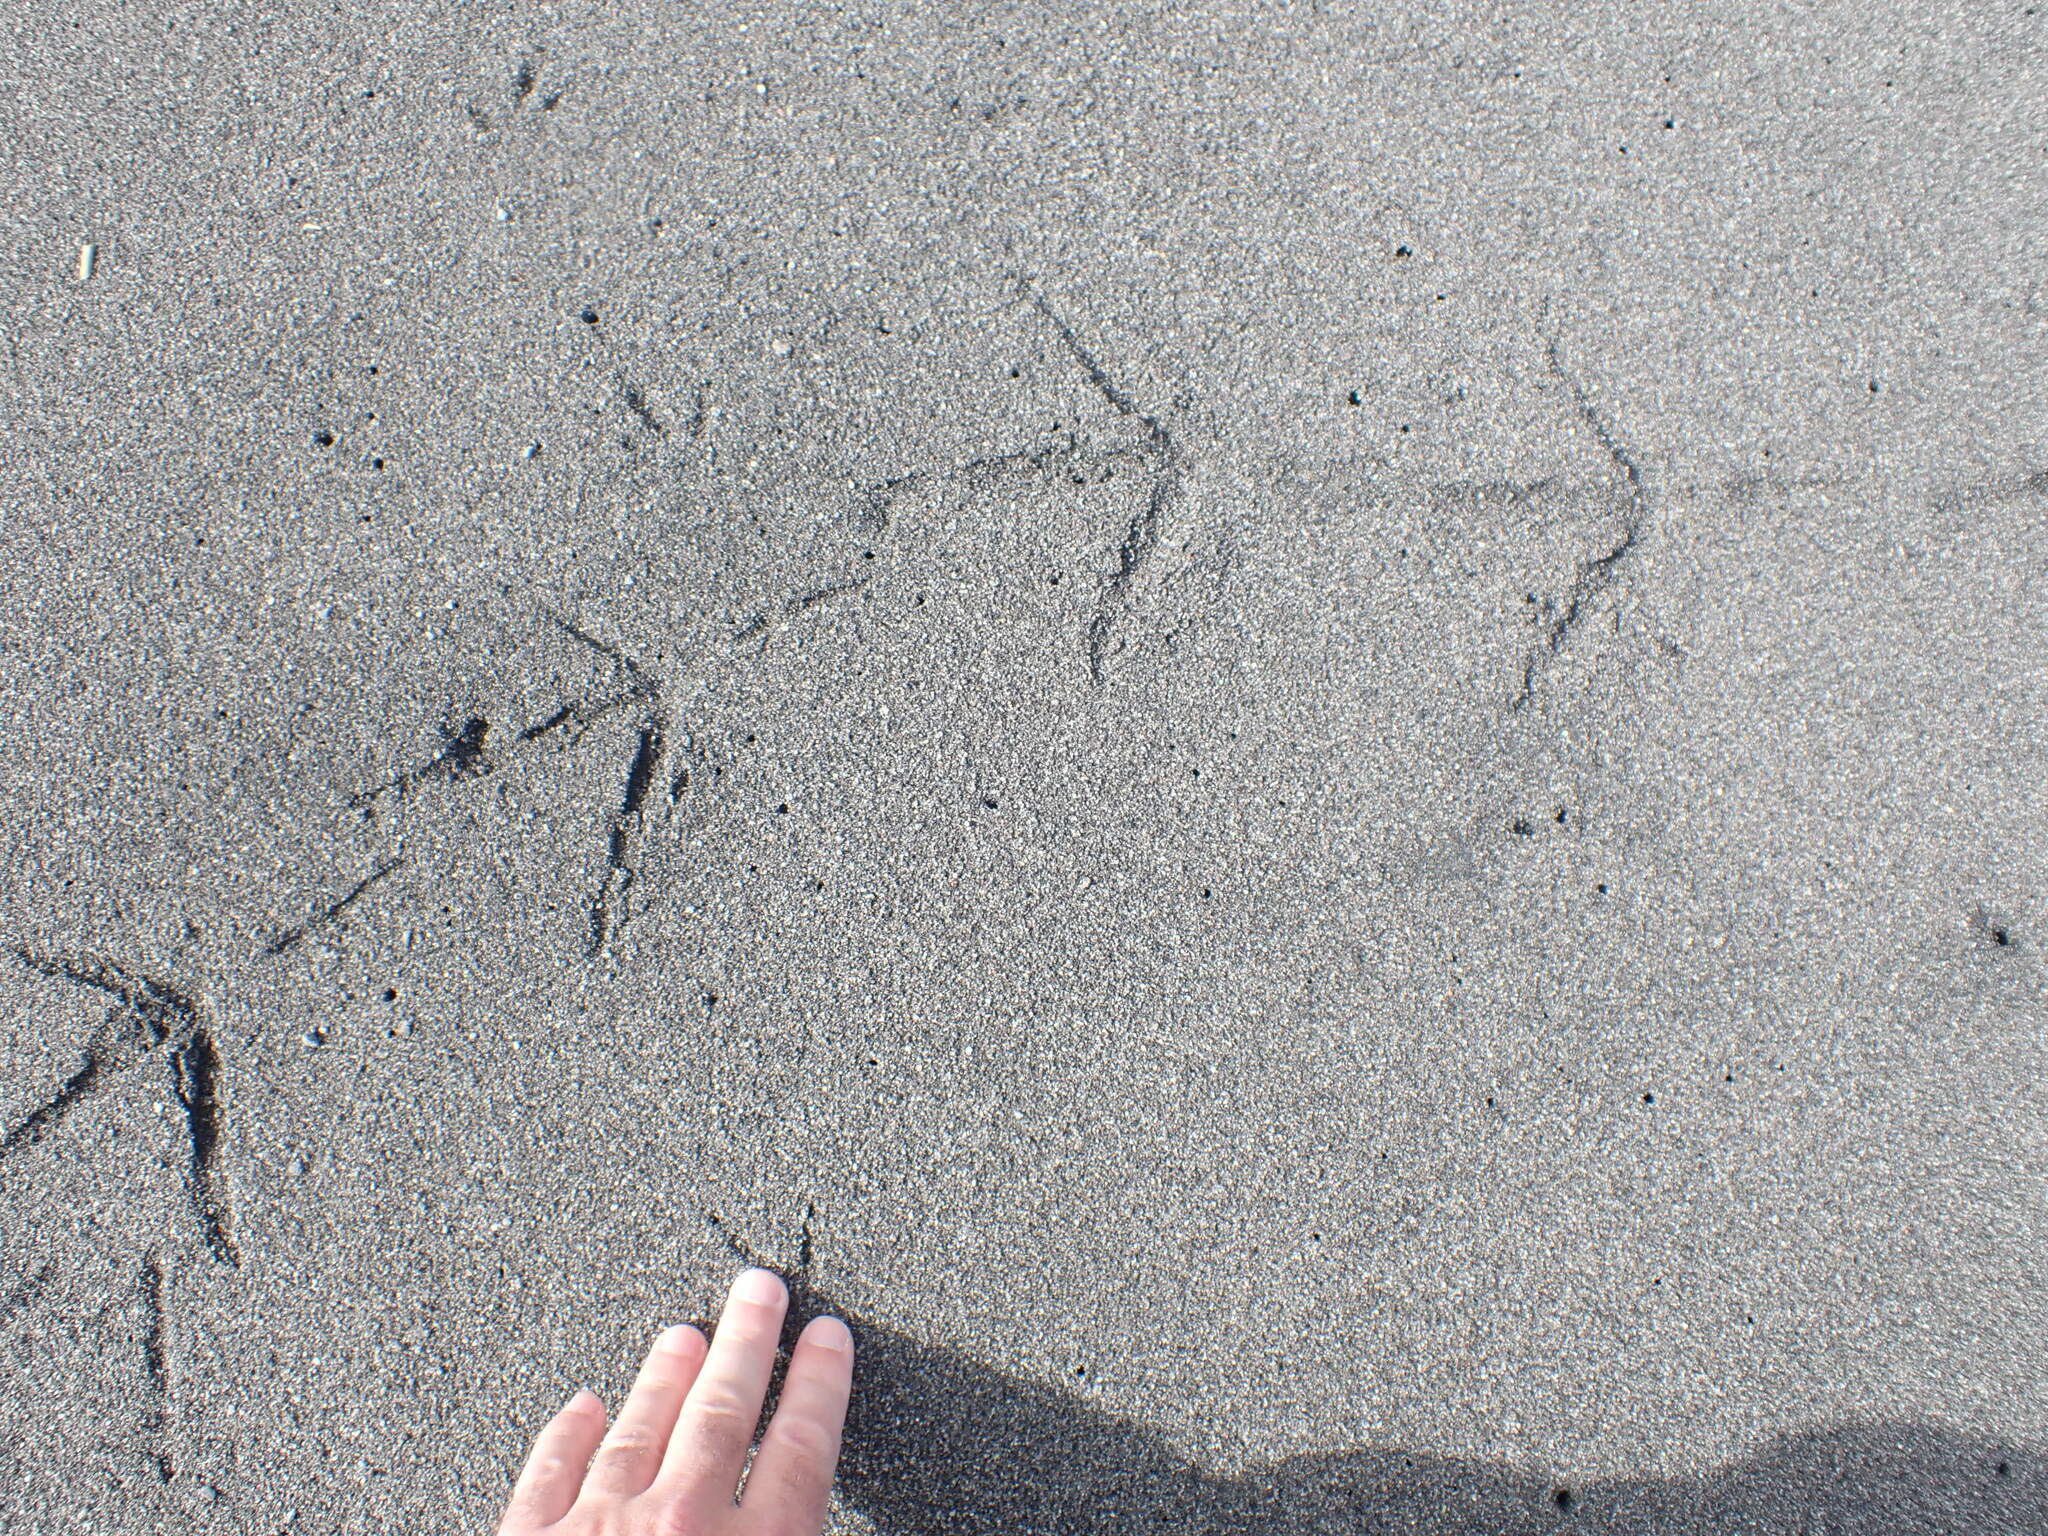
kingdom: Animalia
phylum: Chordata
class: Aves
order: Gruiformes
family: Rallidae
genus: Porphyrio
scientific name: Porphyrio melanotus
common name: Australasian swamphen
